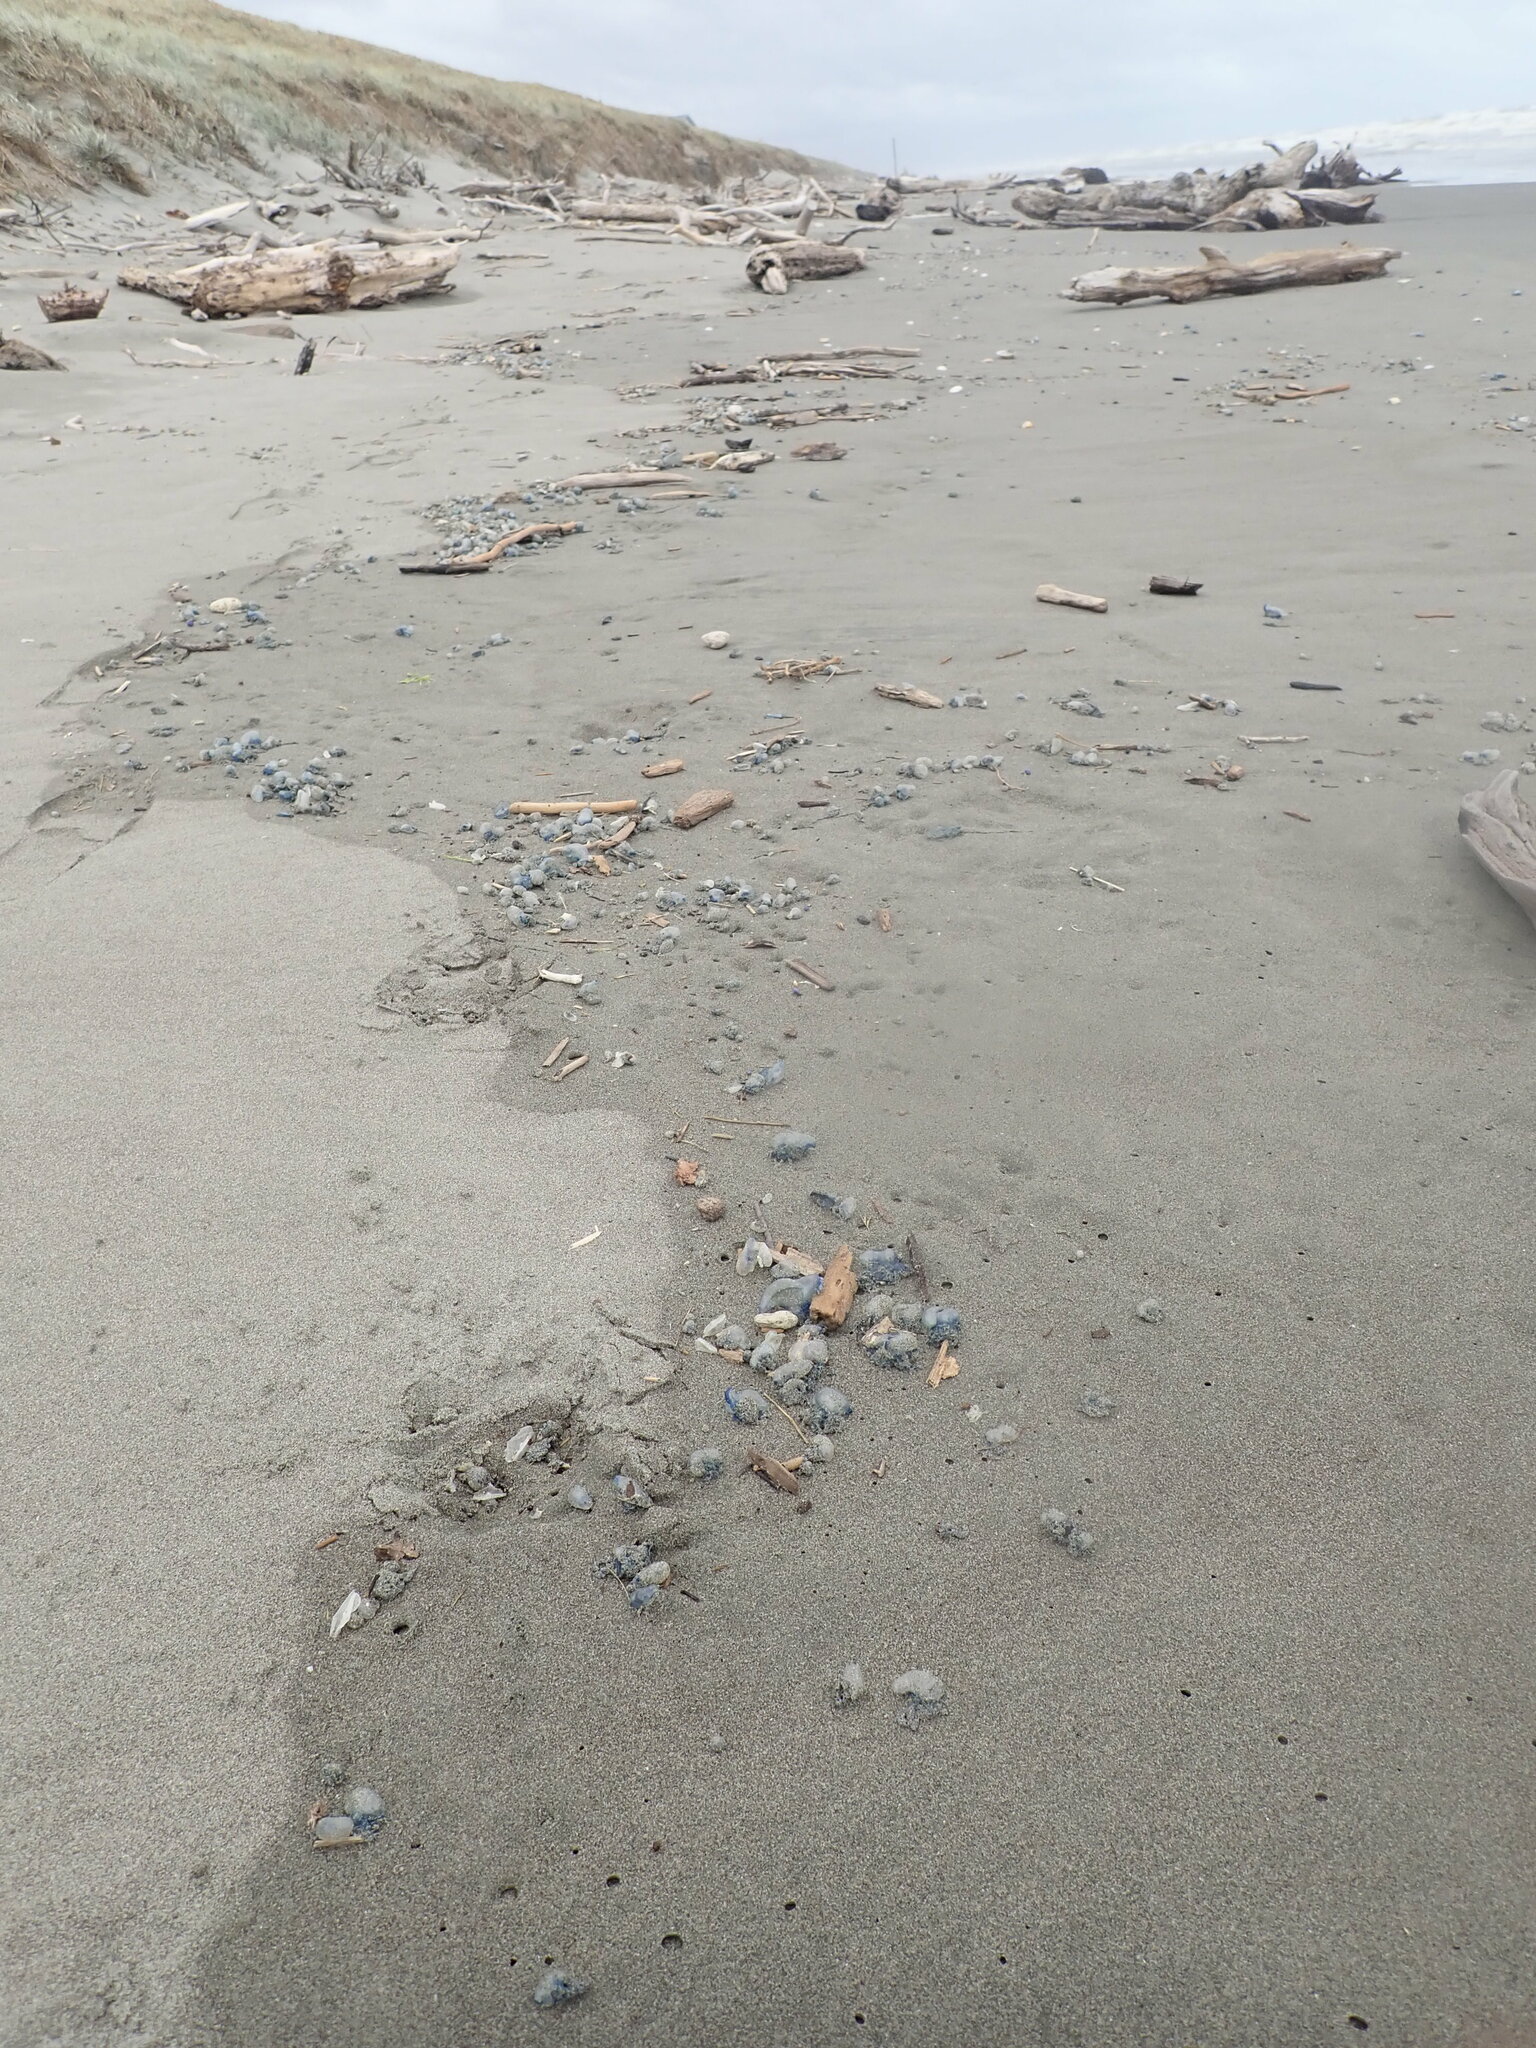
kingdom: Animalia
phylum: Cnidaria
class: Hydrozoa
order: Siphonophorae
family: Physaliidae
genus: Physalia
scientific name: Physalia physalis
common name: Portuguese man-of-war
